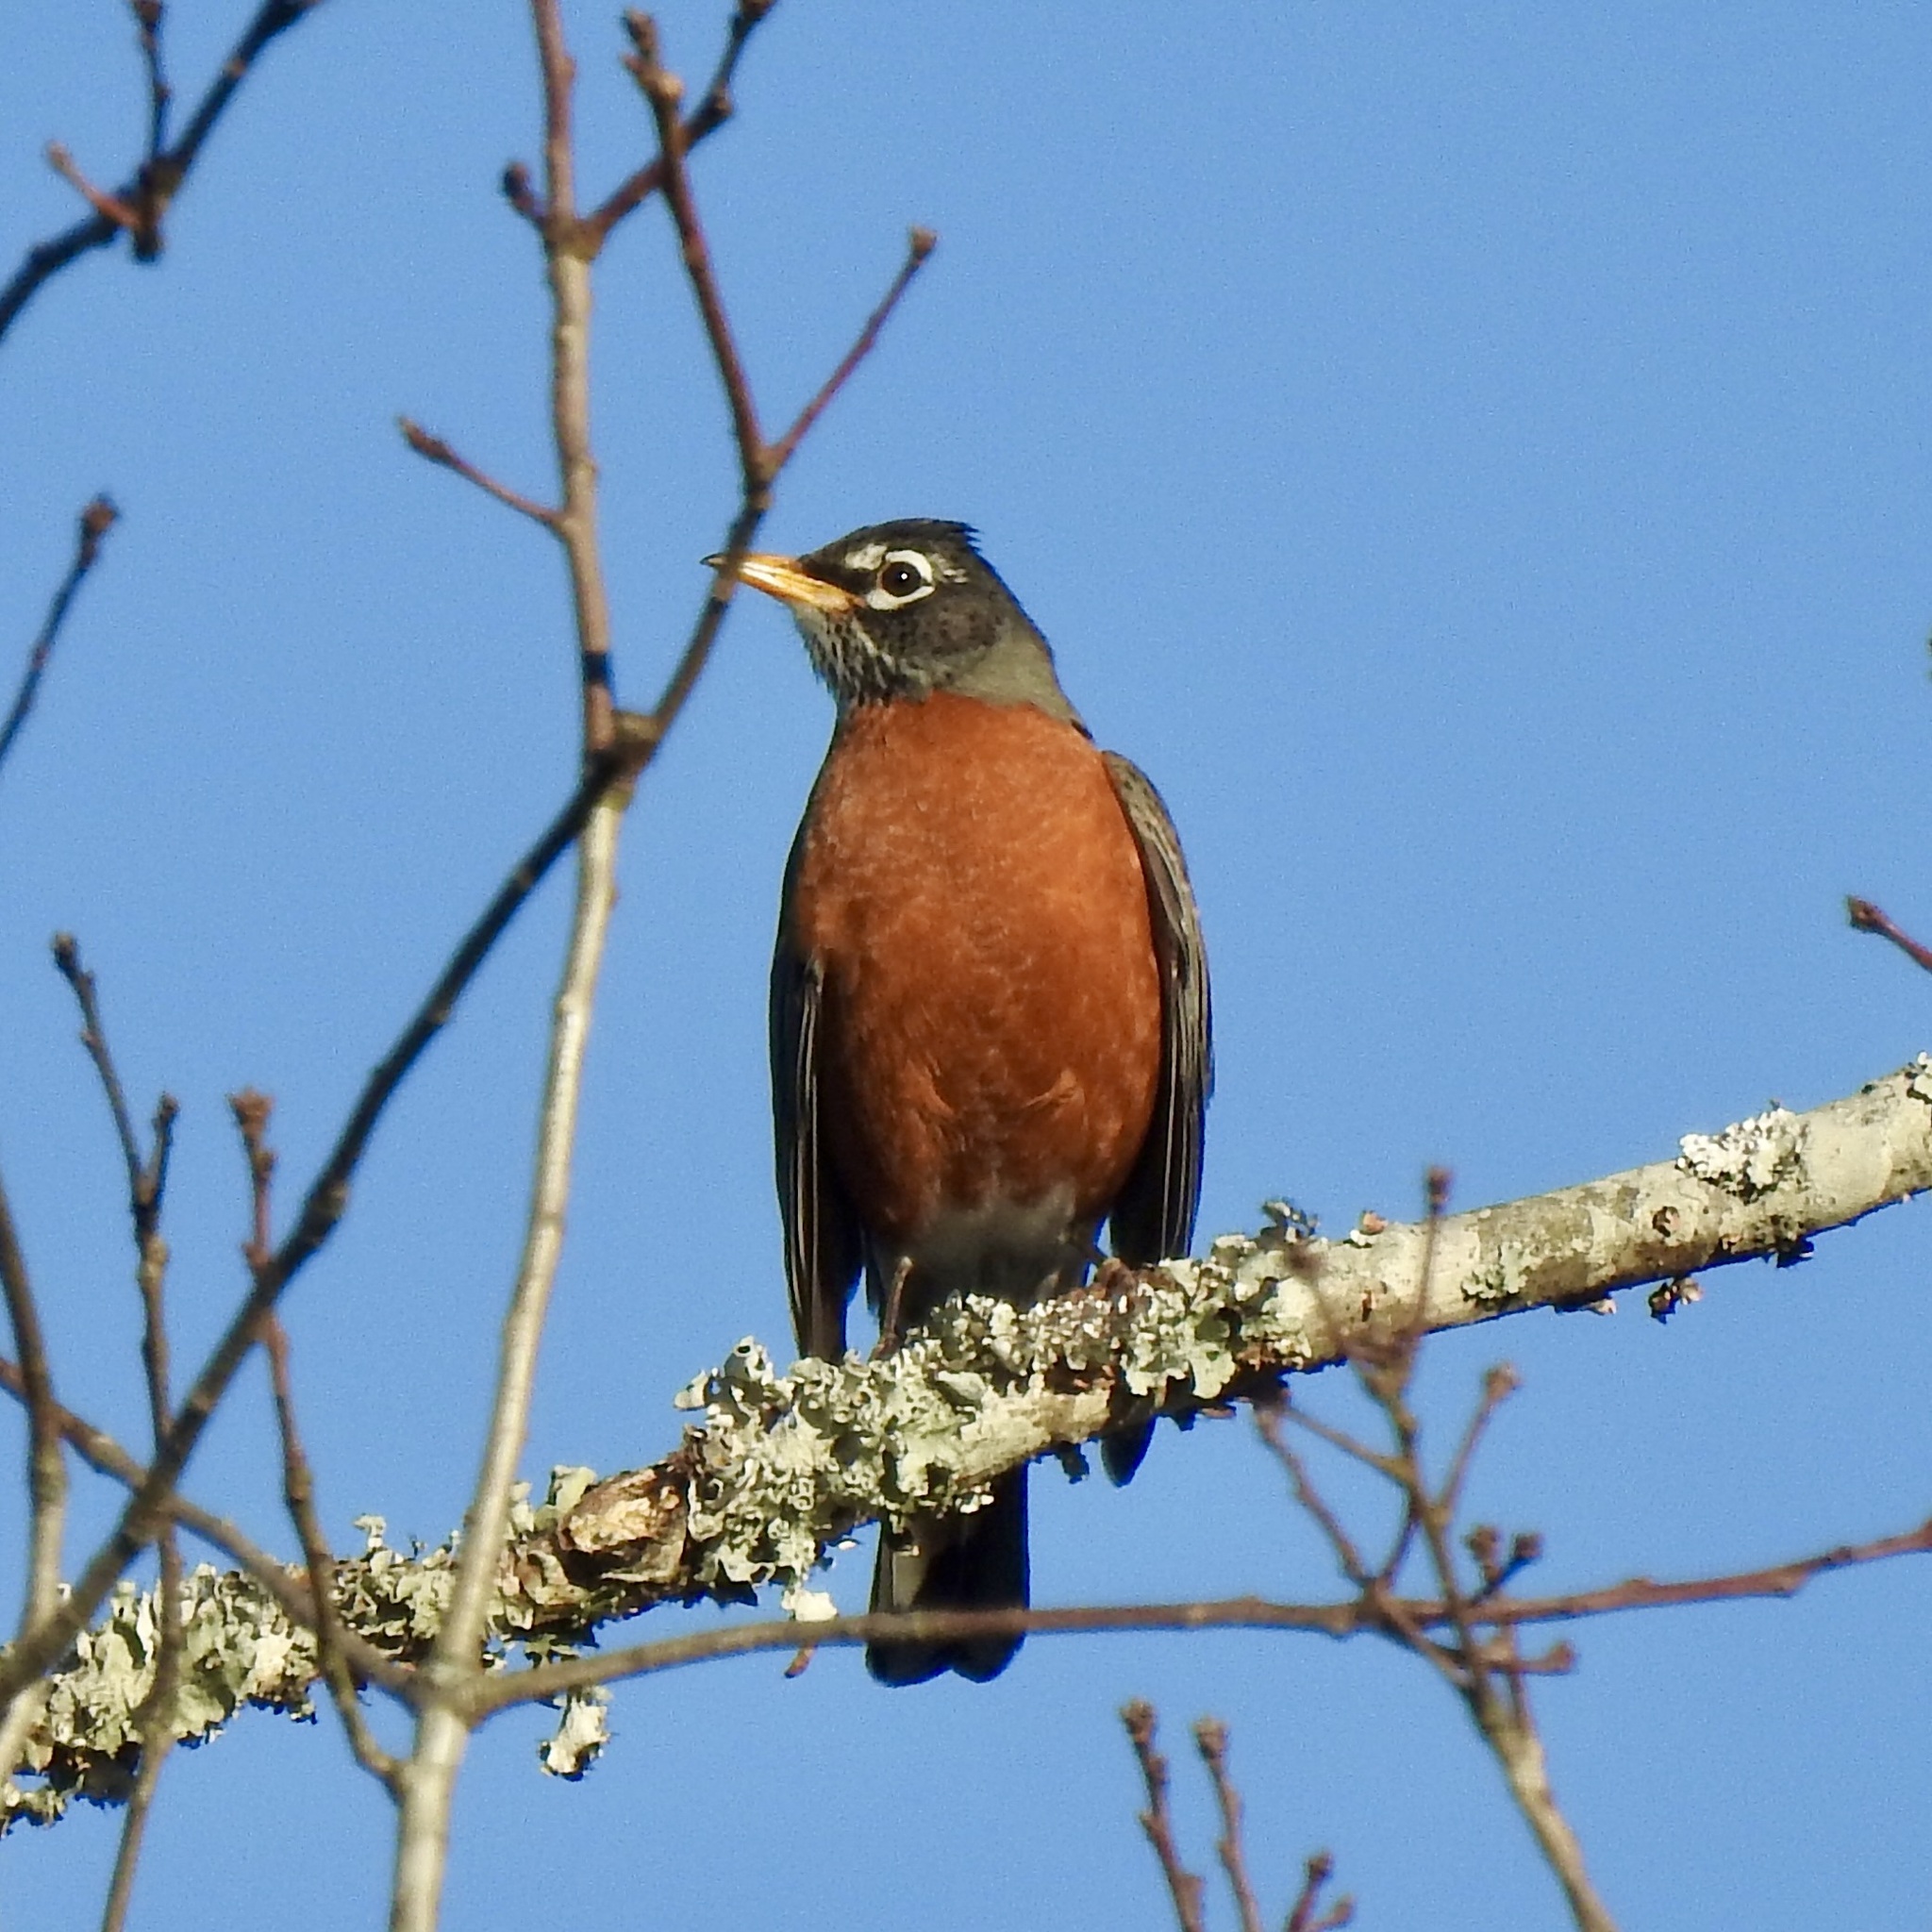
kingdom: Animalia
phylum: Chordata
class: Aves
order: Passeriformes
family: Turdidae
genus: Turdus
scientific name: Turdus migratorius
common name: American robin
